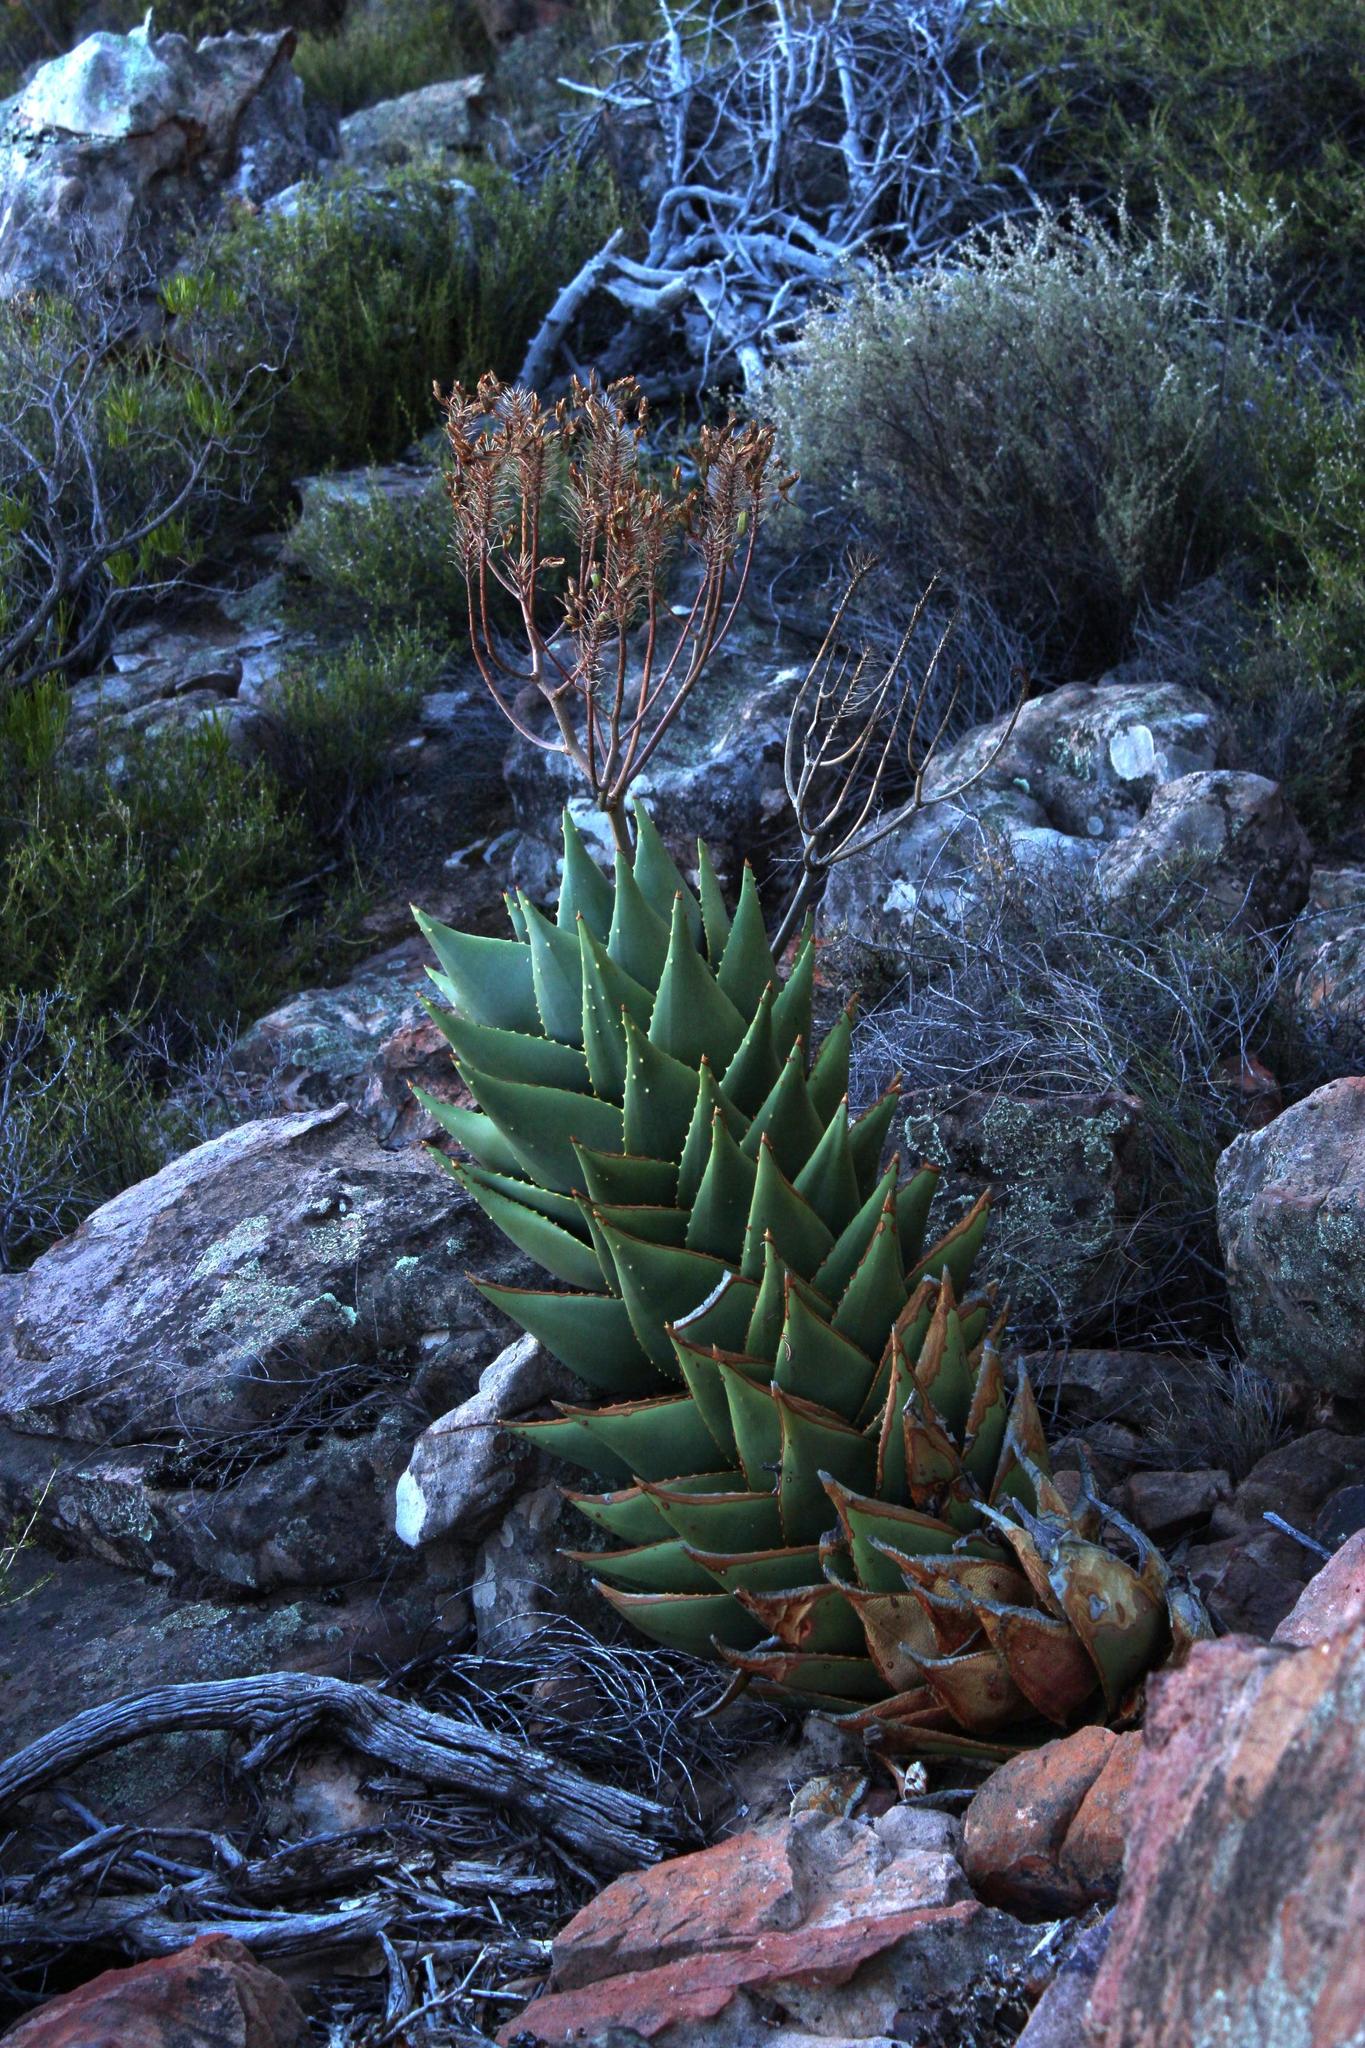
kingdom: Plantae
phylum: Tracheophyta
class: Liliopsida
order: Asparagales
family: Asphodelaceae
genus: Aloe
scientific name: Aloe perfoliata
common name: Mitra aloe
